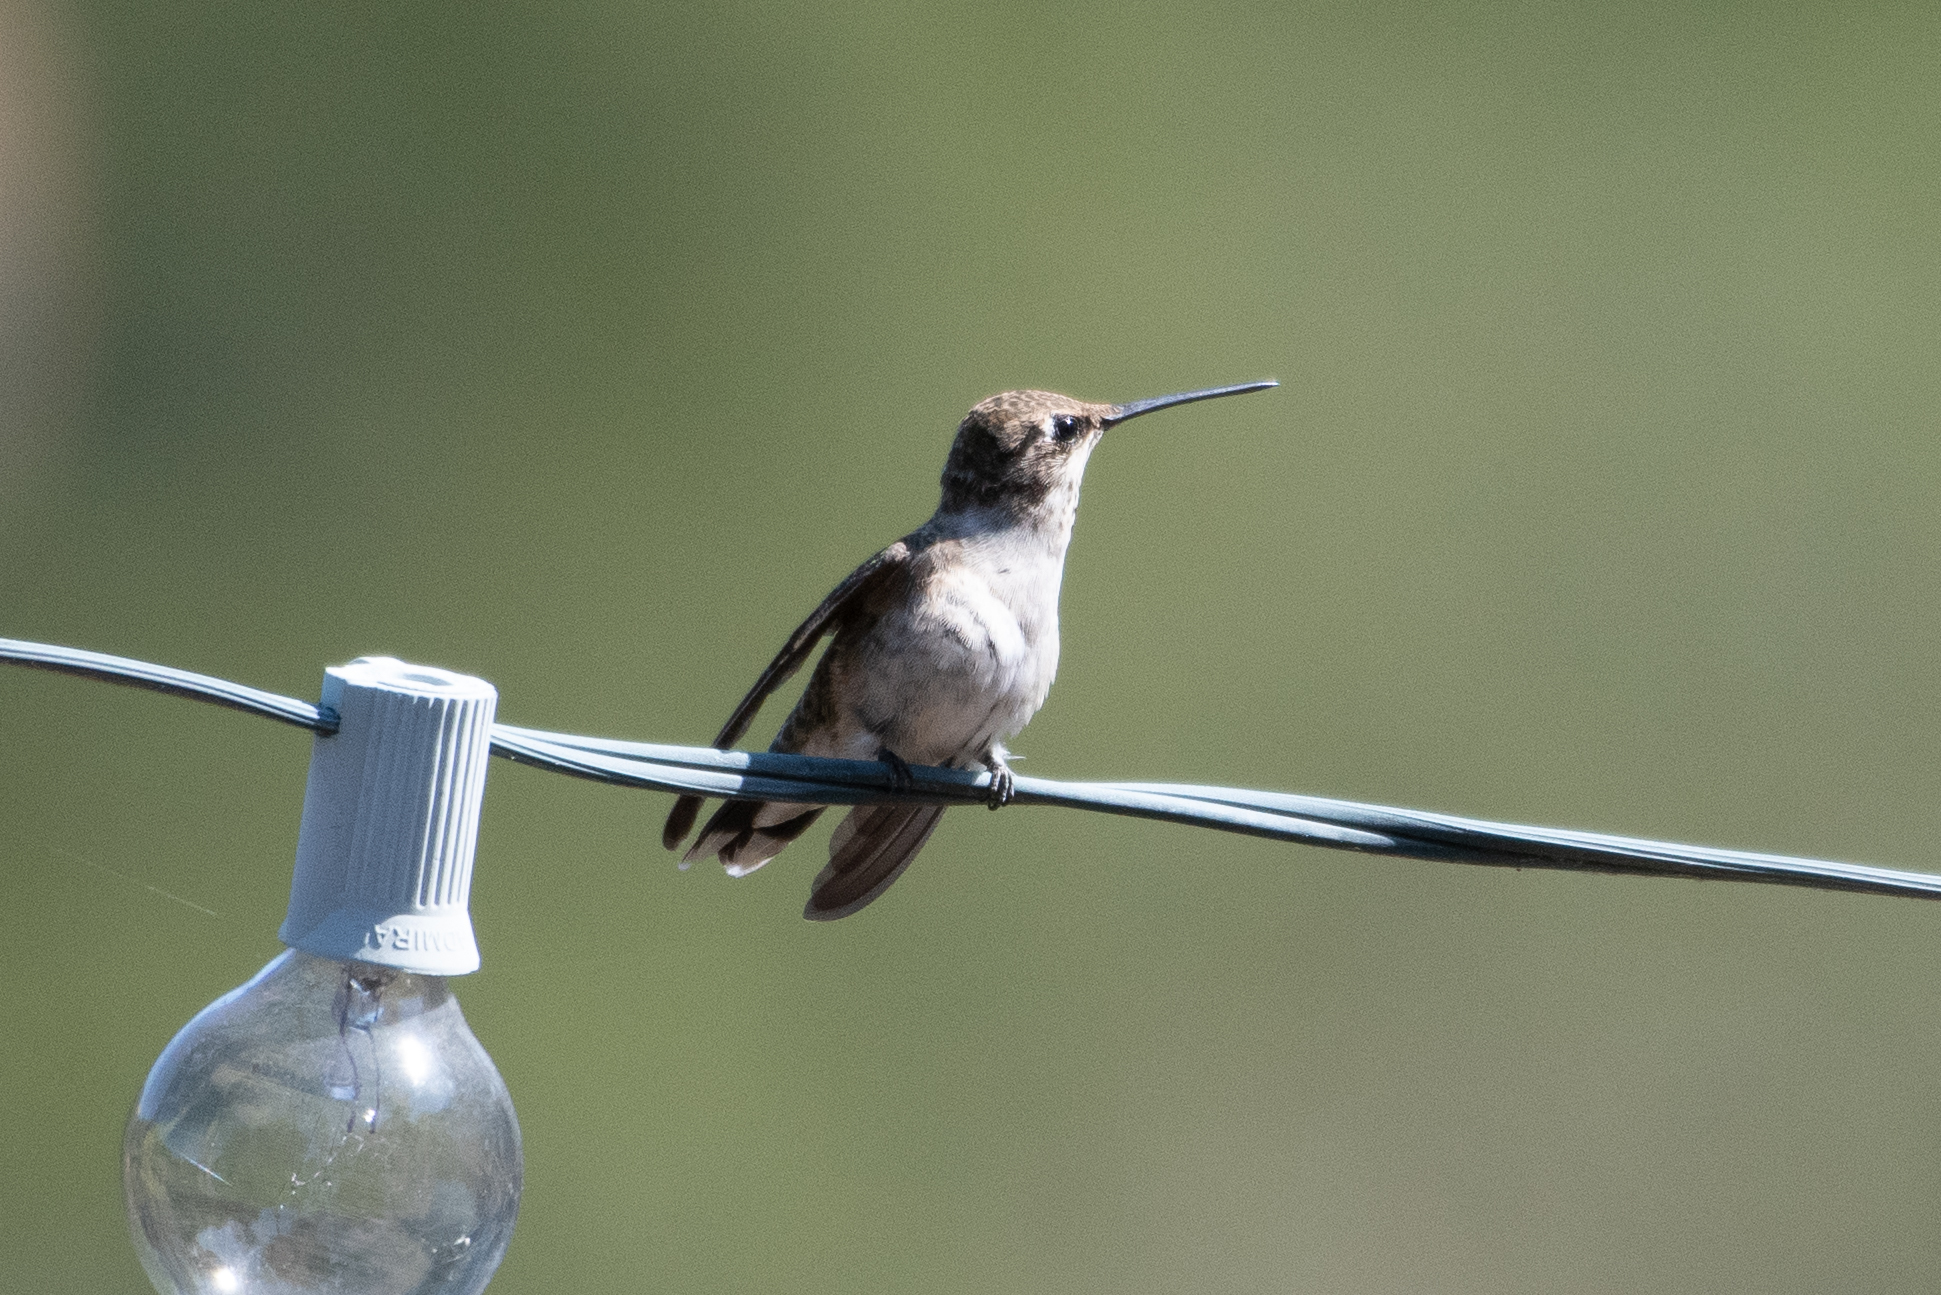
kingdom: Animalia
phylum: Chordata
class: Aves
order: Apodiformes
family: Trochilidae
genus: Archilochus
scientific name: Archilochus alexandri
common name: Black-chinned hummingbird
